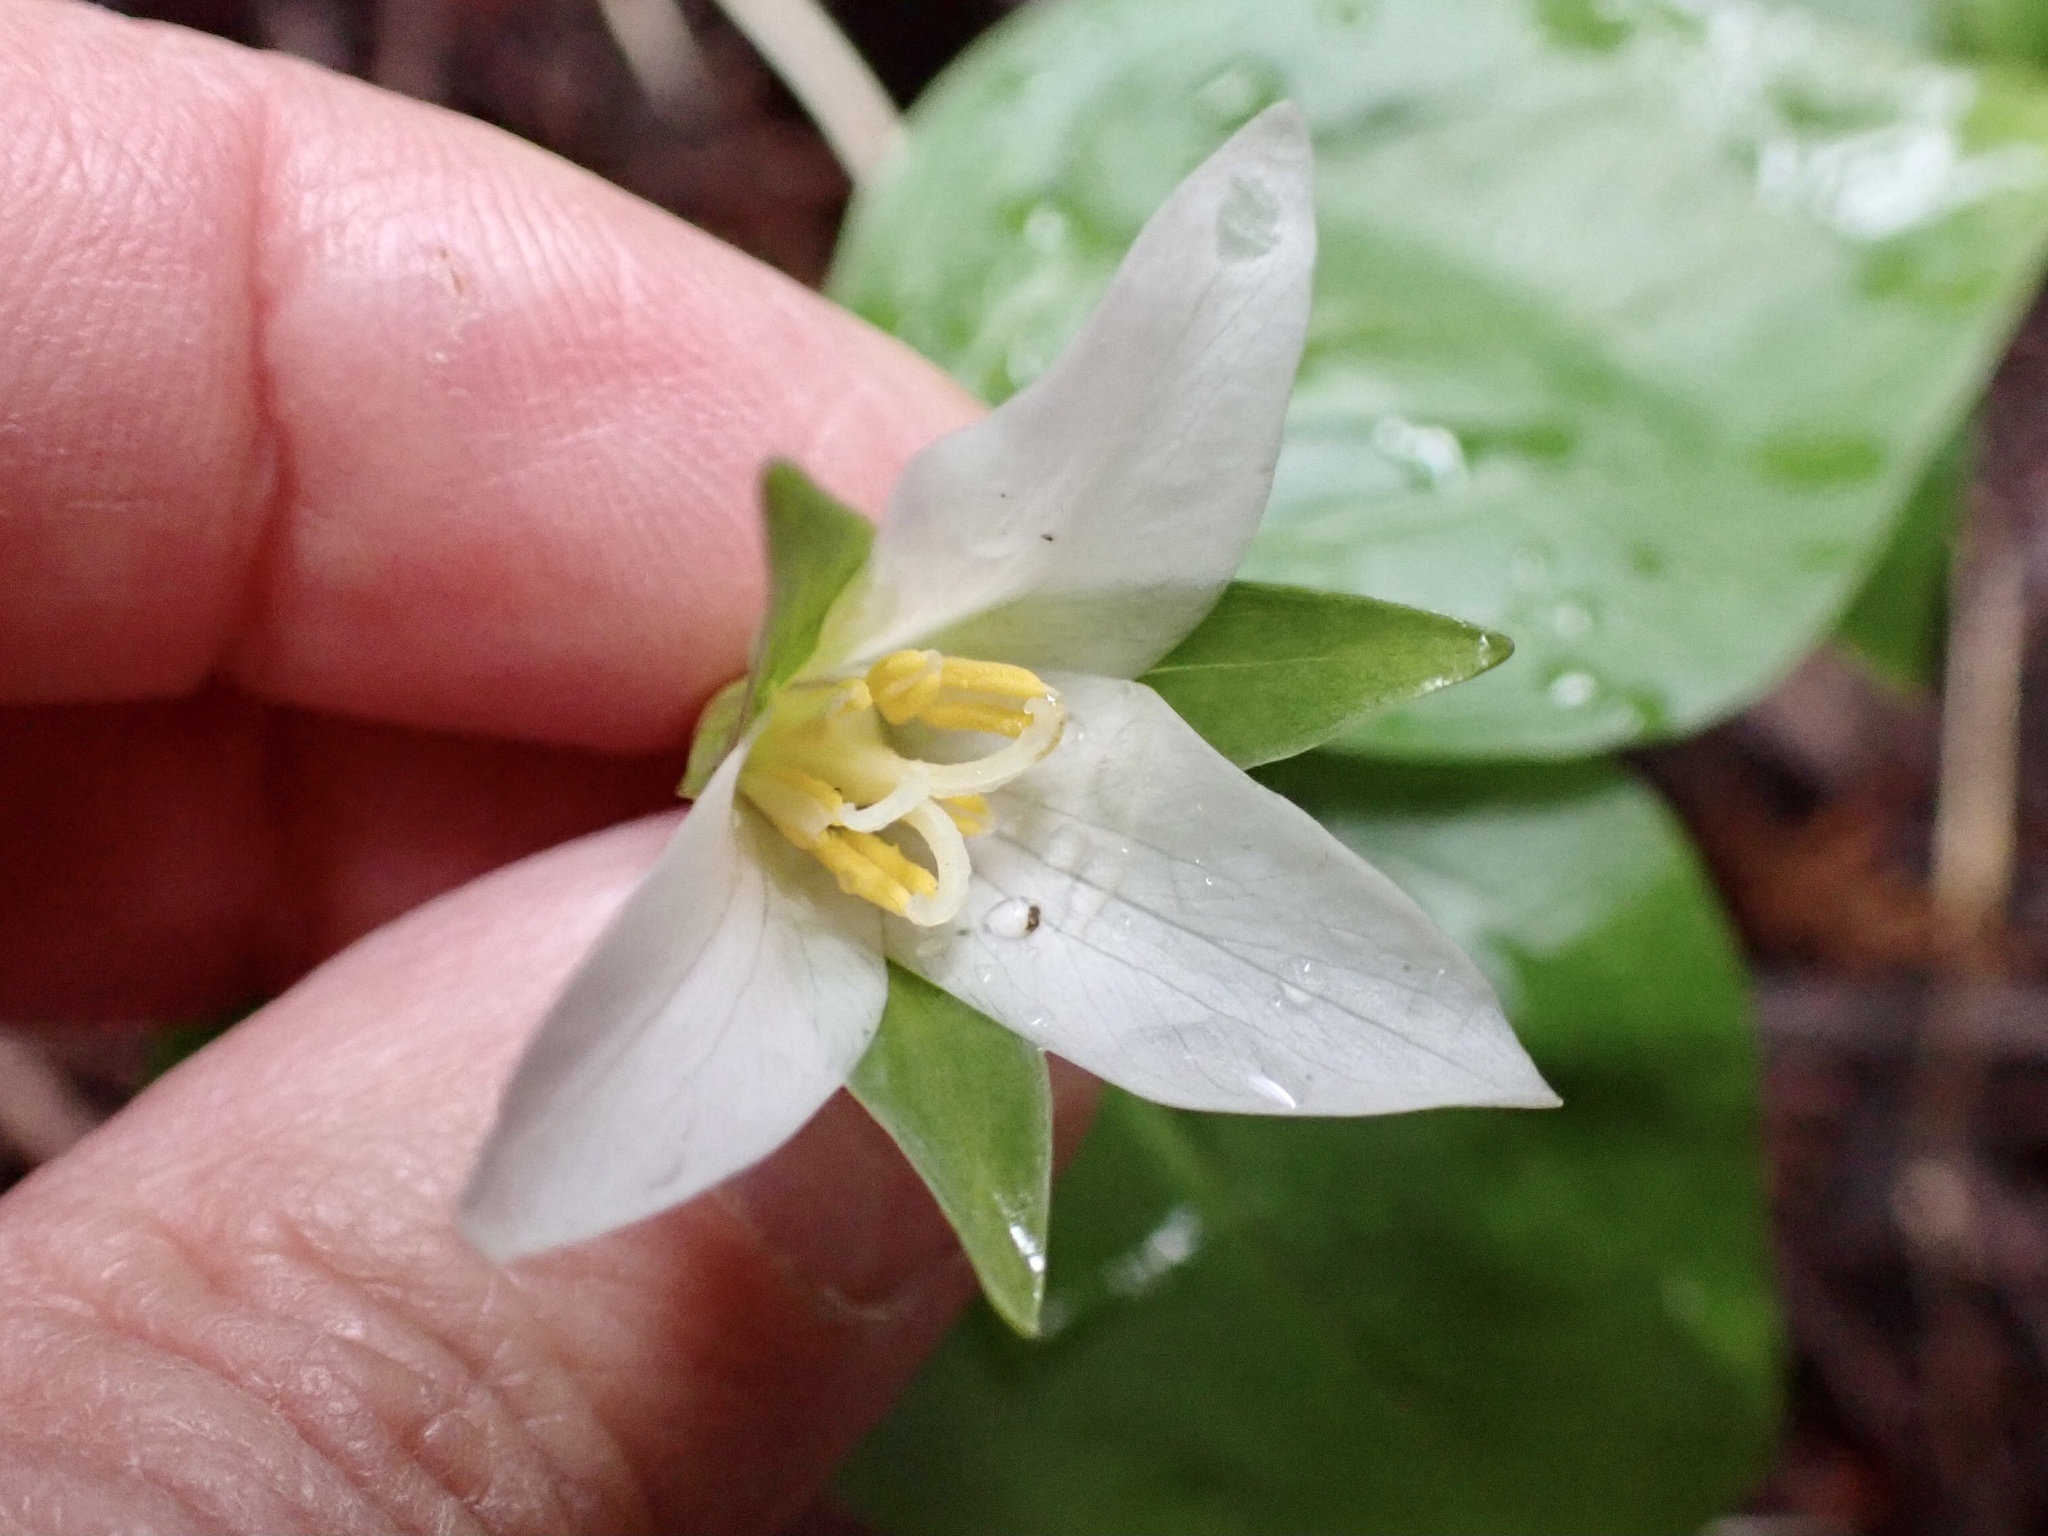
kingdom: Plantae
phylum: Tracheophyta
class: Liliopsida
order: Liliales
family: Melanthiaceae
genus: Trillium
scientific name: Trillium ovatum
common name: Pacific trillium
